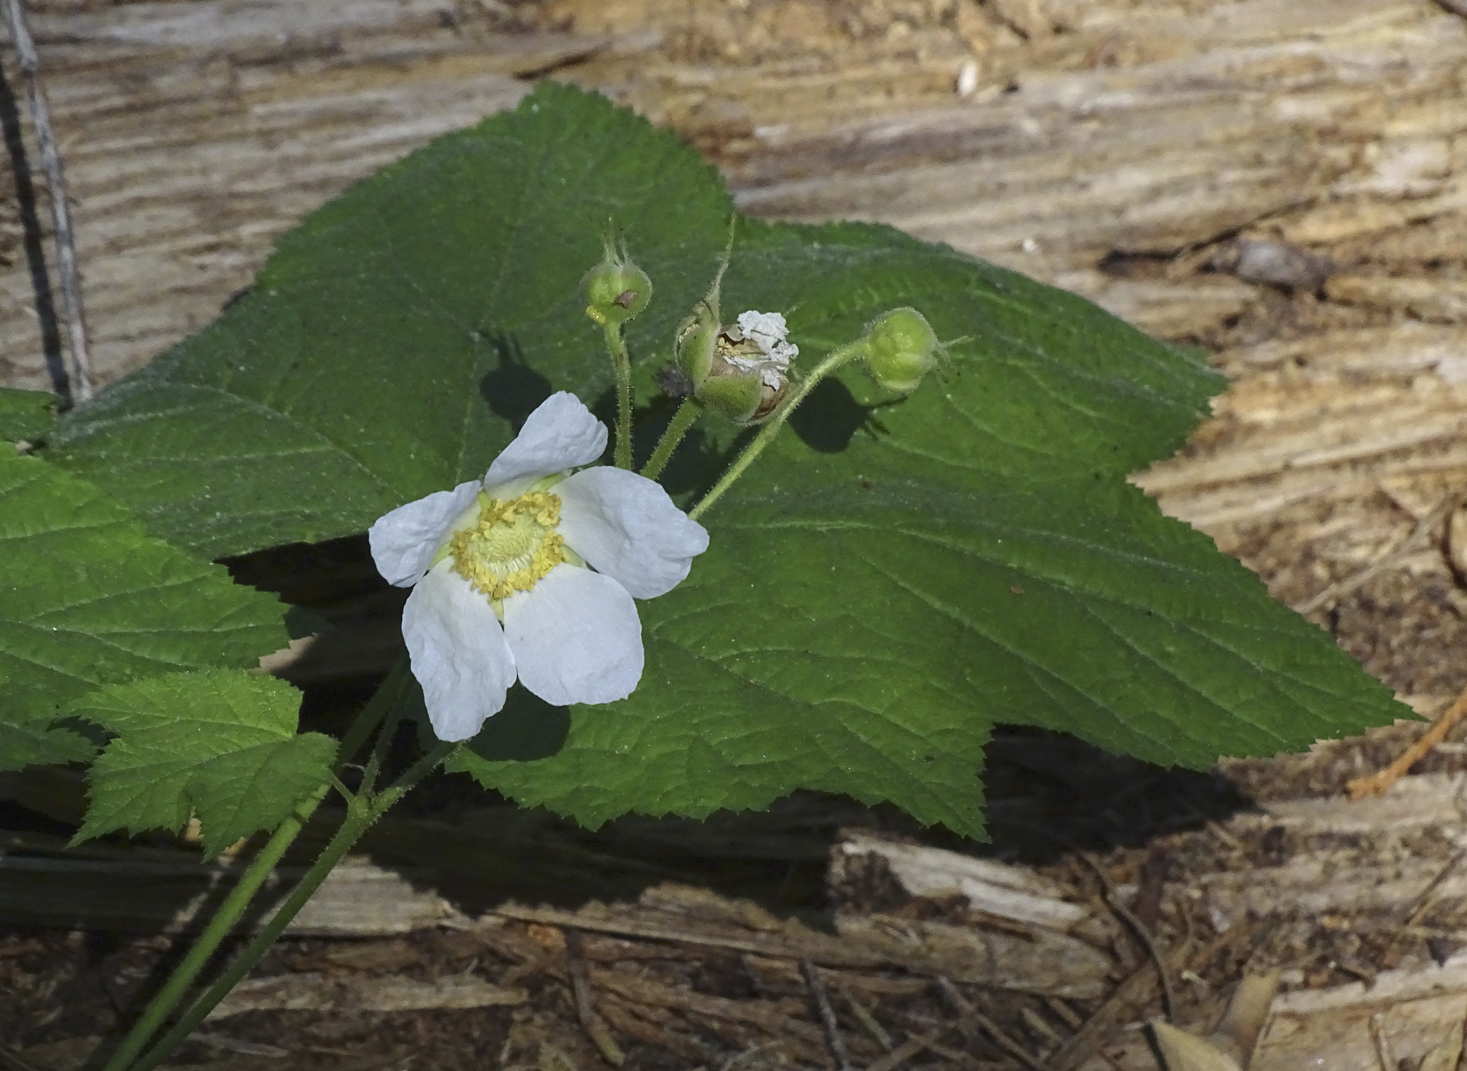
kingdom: Plantae
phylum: Tracheophyta
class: Magnoliopsida
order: Rosales
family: Rosaceae
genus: Rubus
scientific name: Rubus parviflorus
